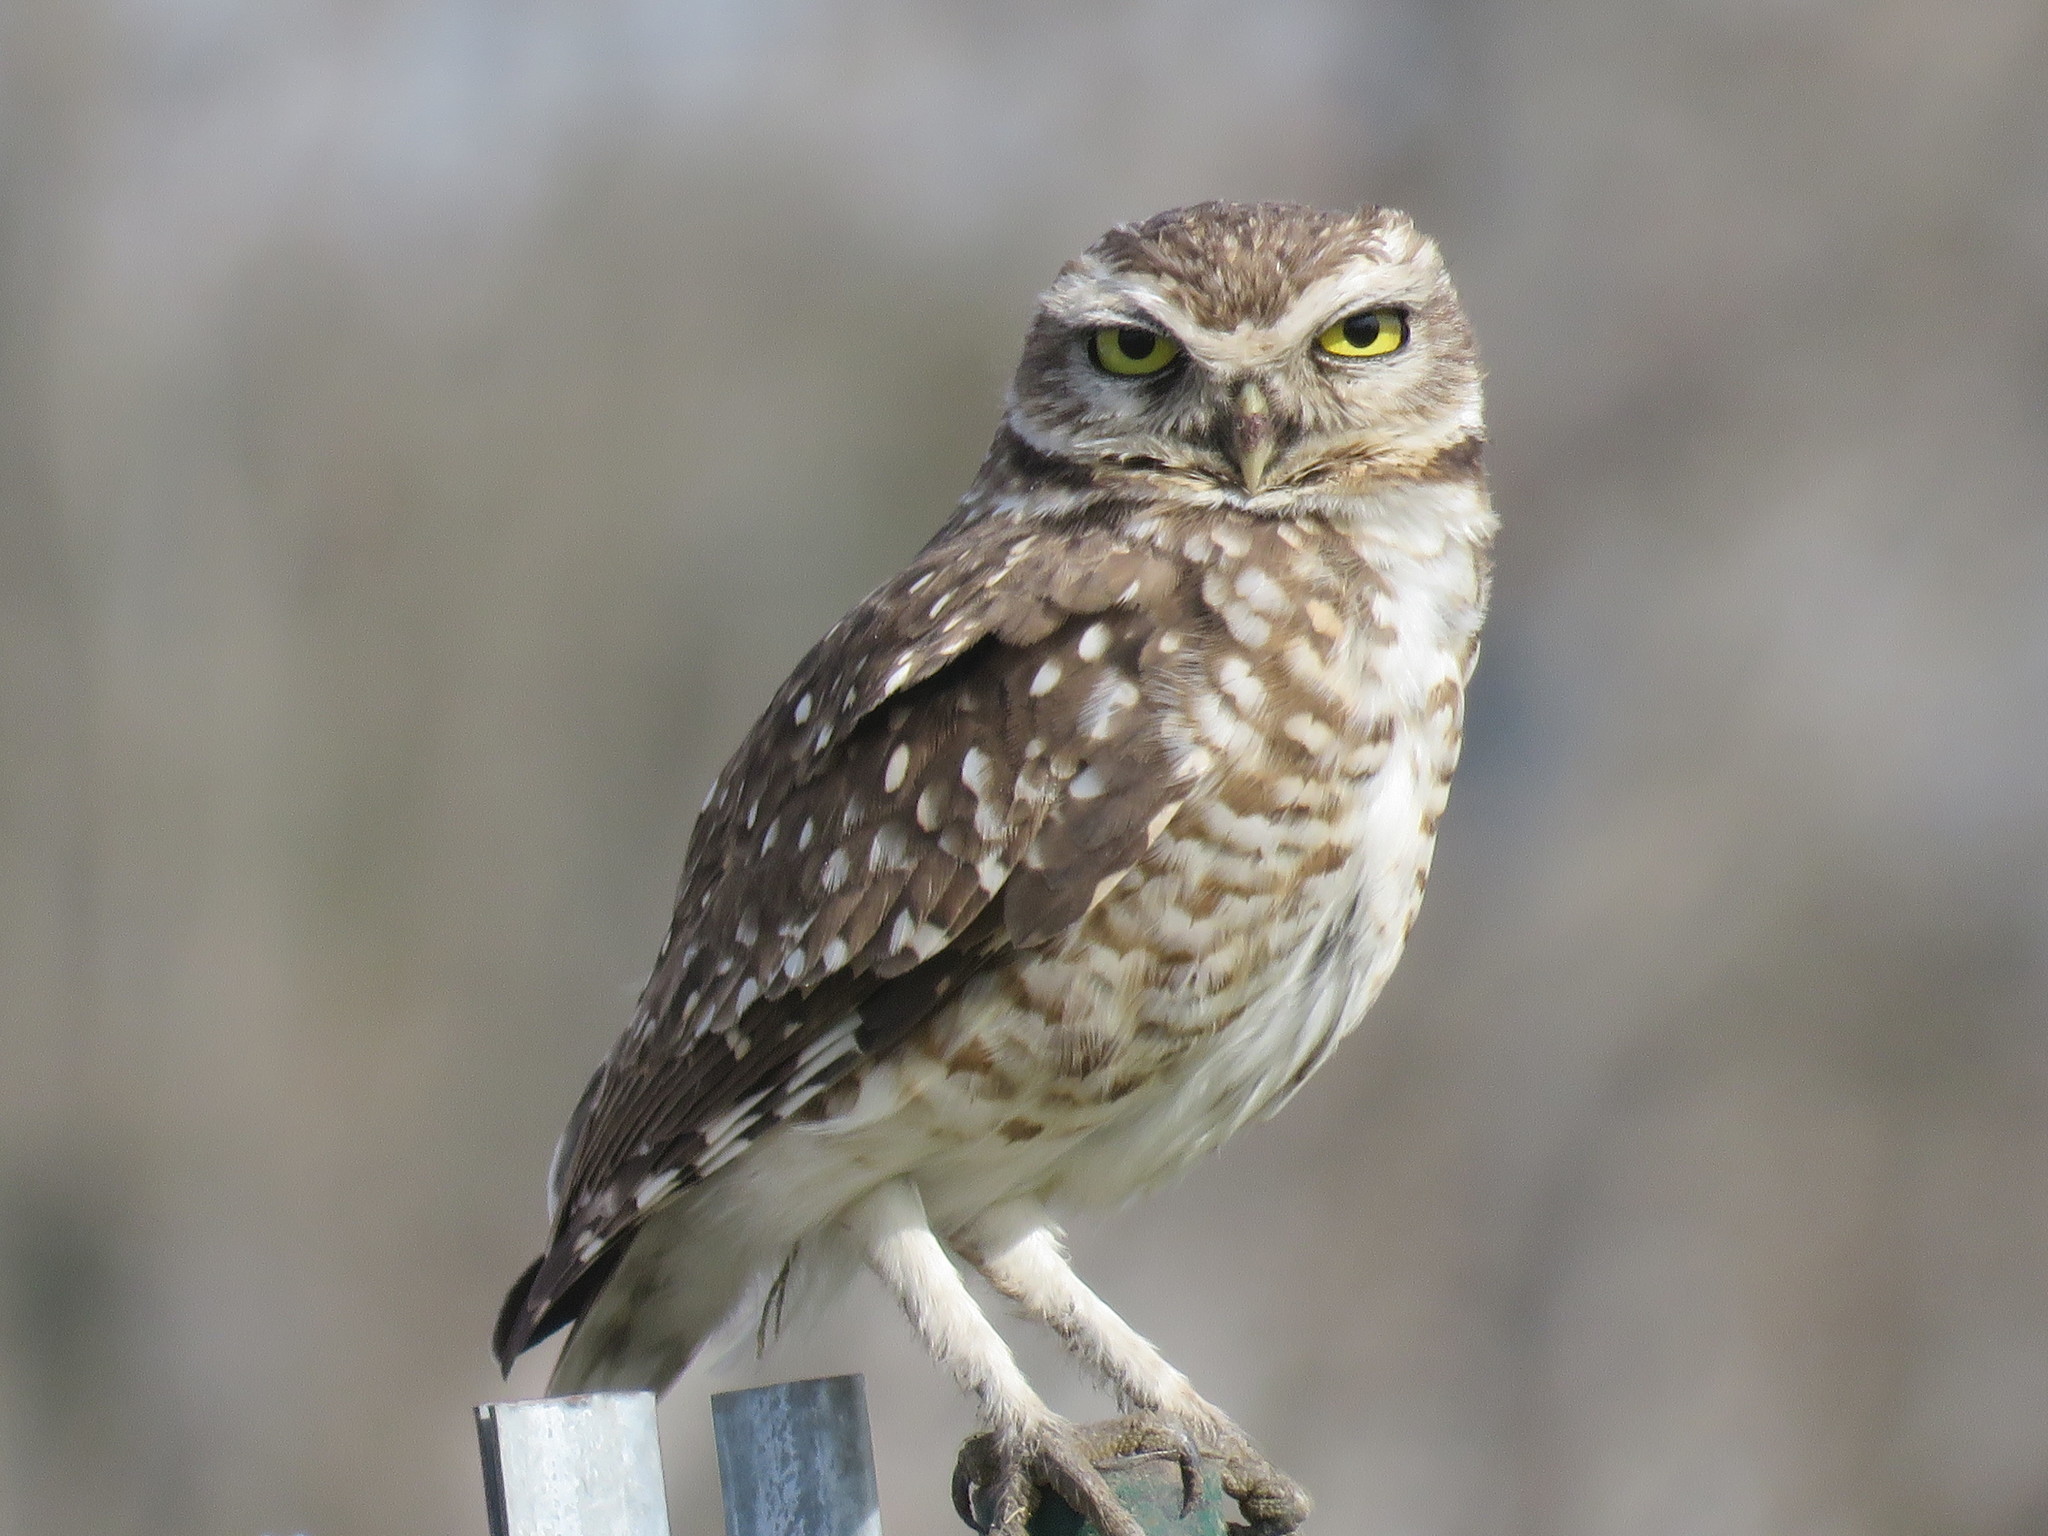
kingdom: Animalia
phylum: Chordata
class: Aves
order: Strigiformes
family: Strigidae
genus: Athene
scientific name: Athene cunicularia
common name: Burrowing owl
